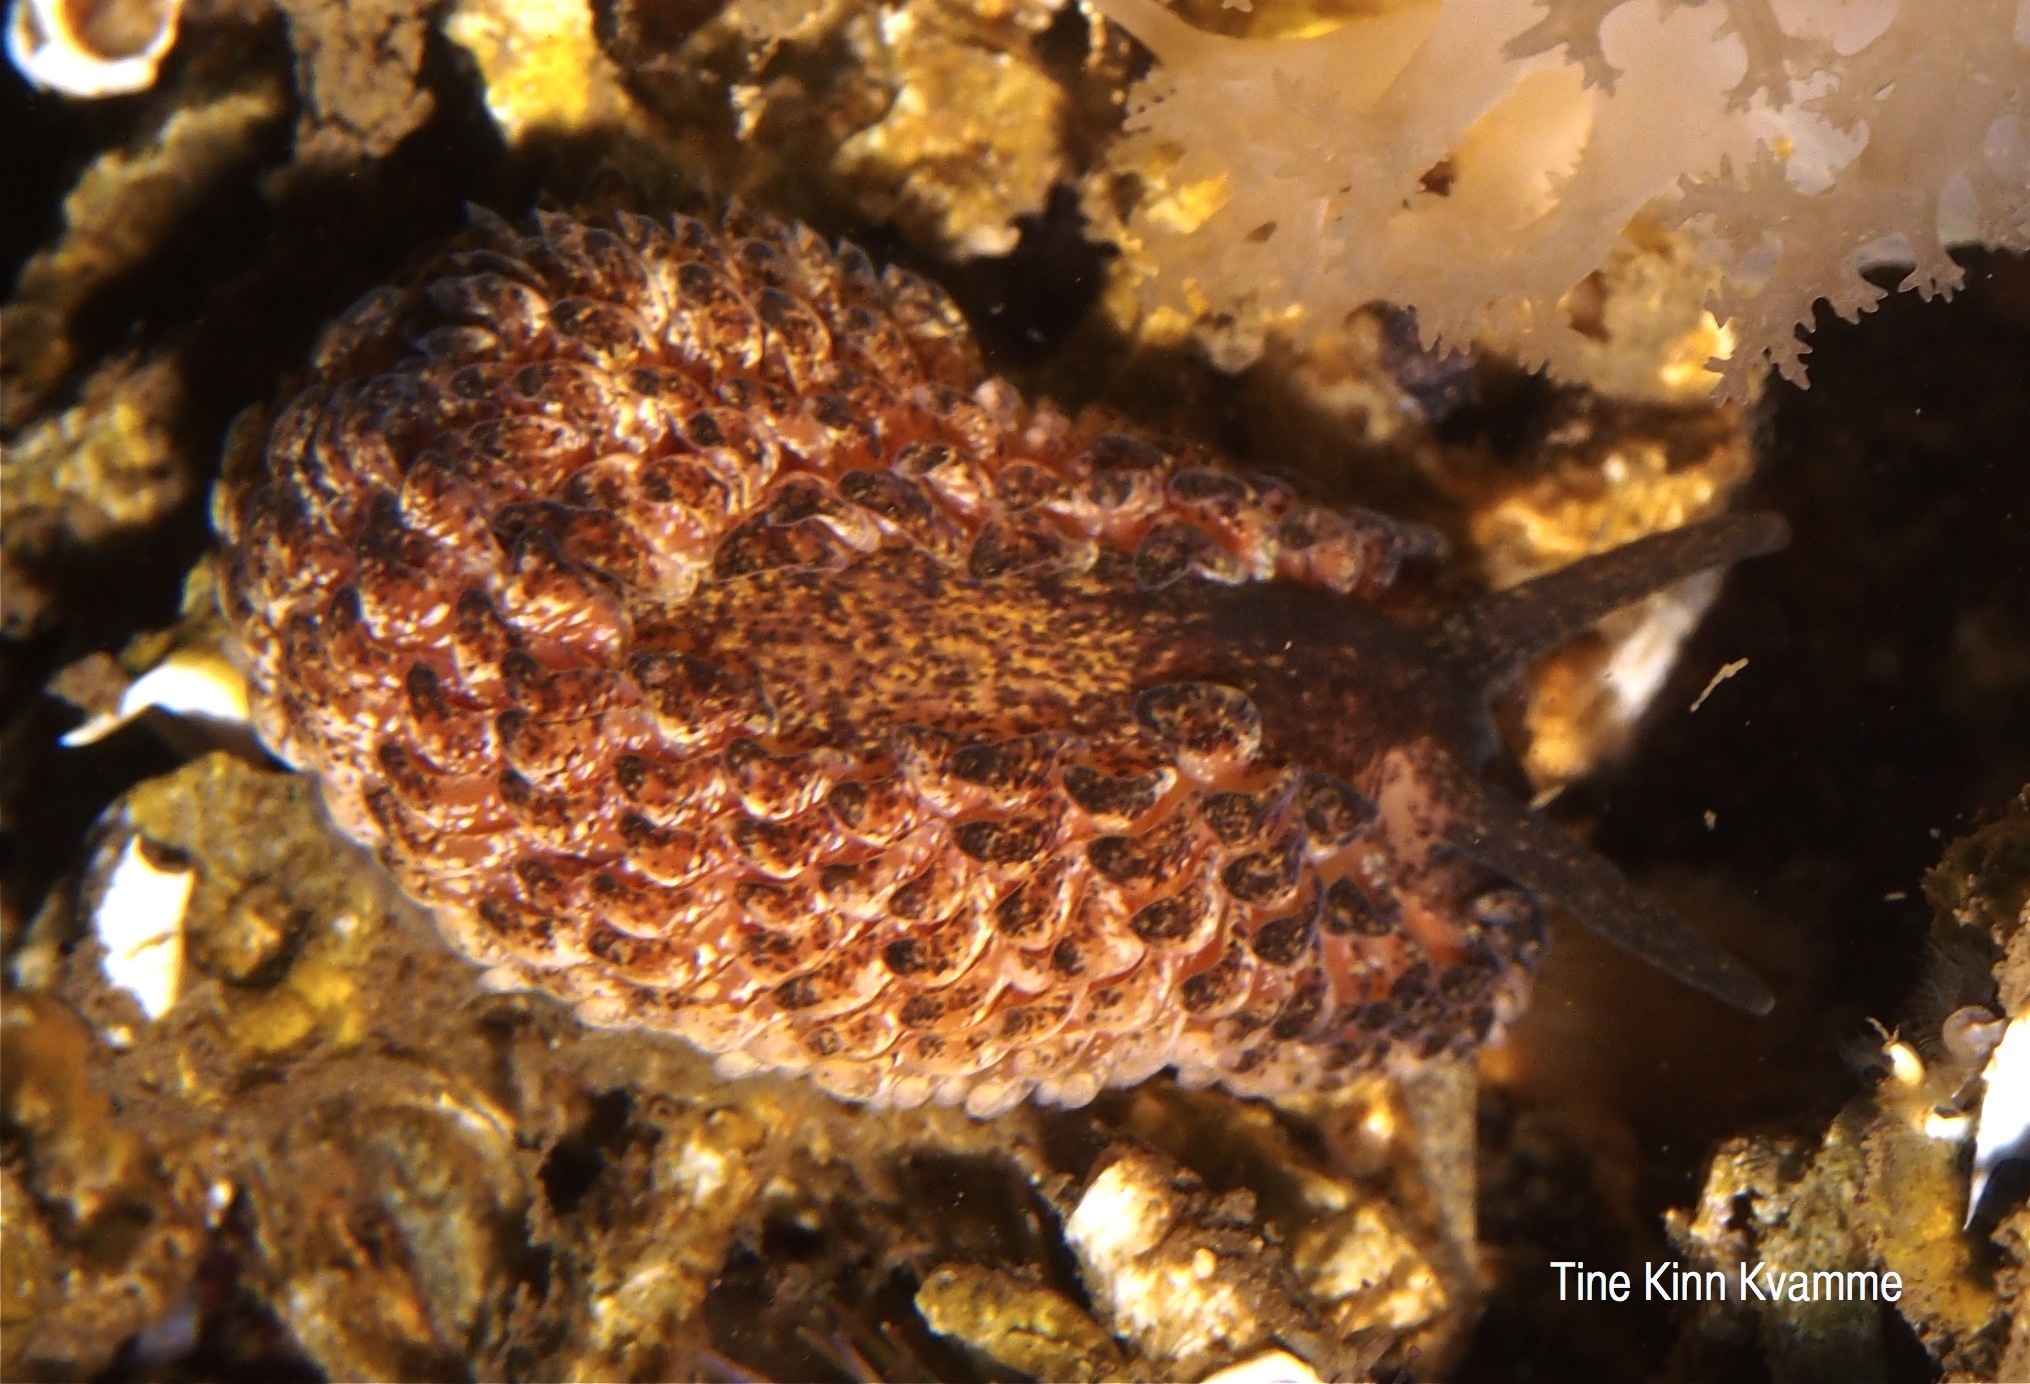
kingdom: Animalia
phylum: Mollusca
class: Gastropoda
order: Nudibranchia
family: Aeolidiidae
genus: Aeolidia
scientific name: Aeolidia papillosa
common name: Common grey sea slug
